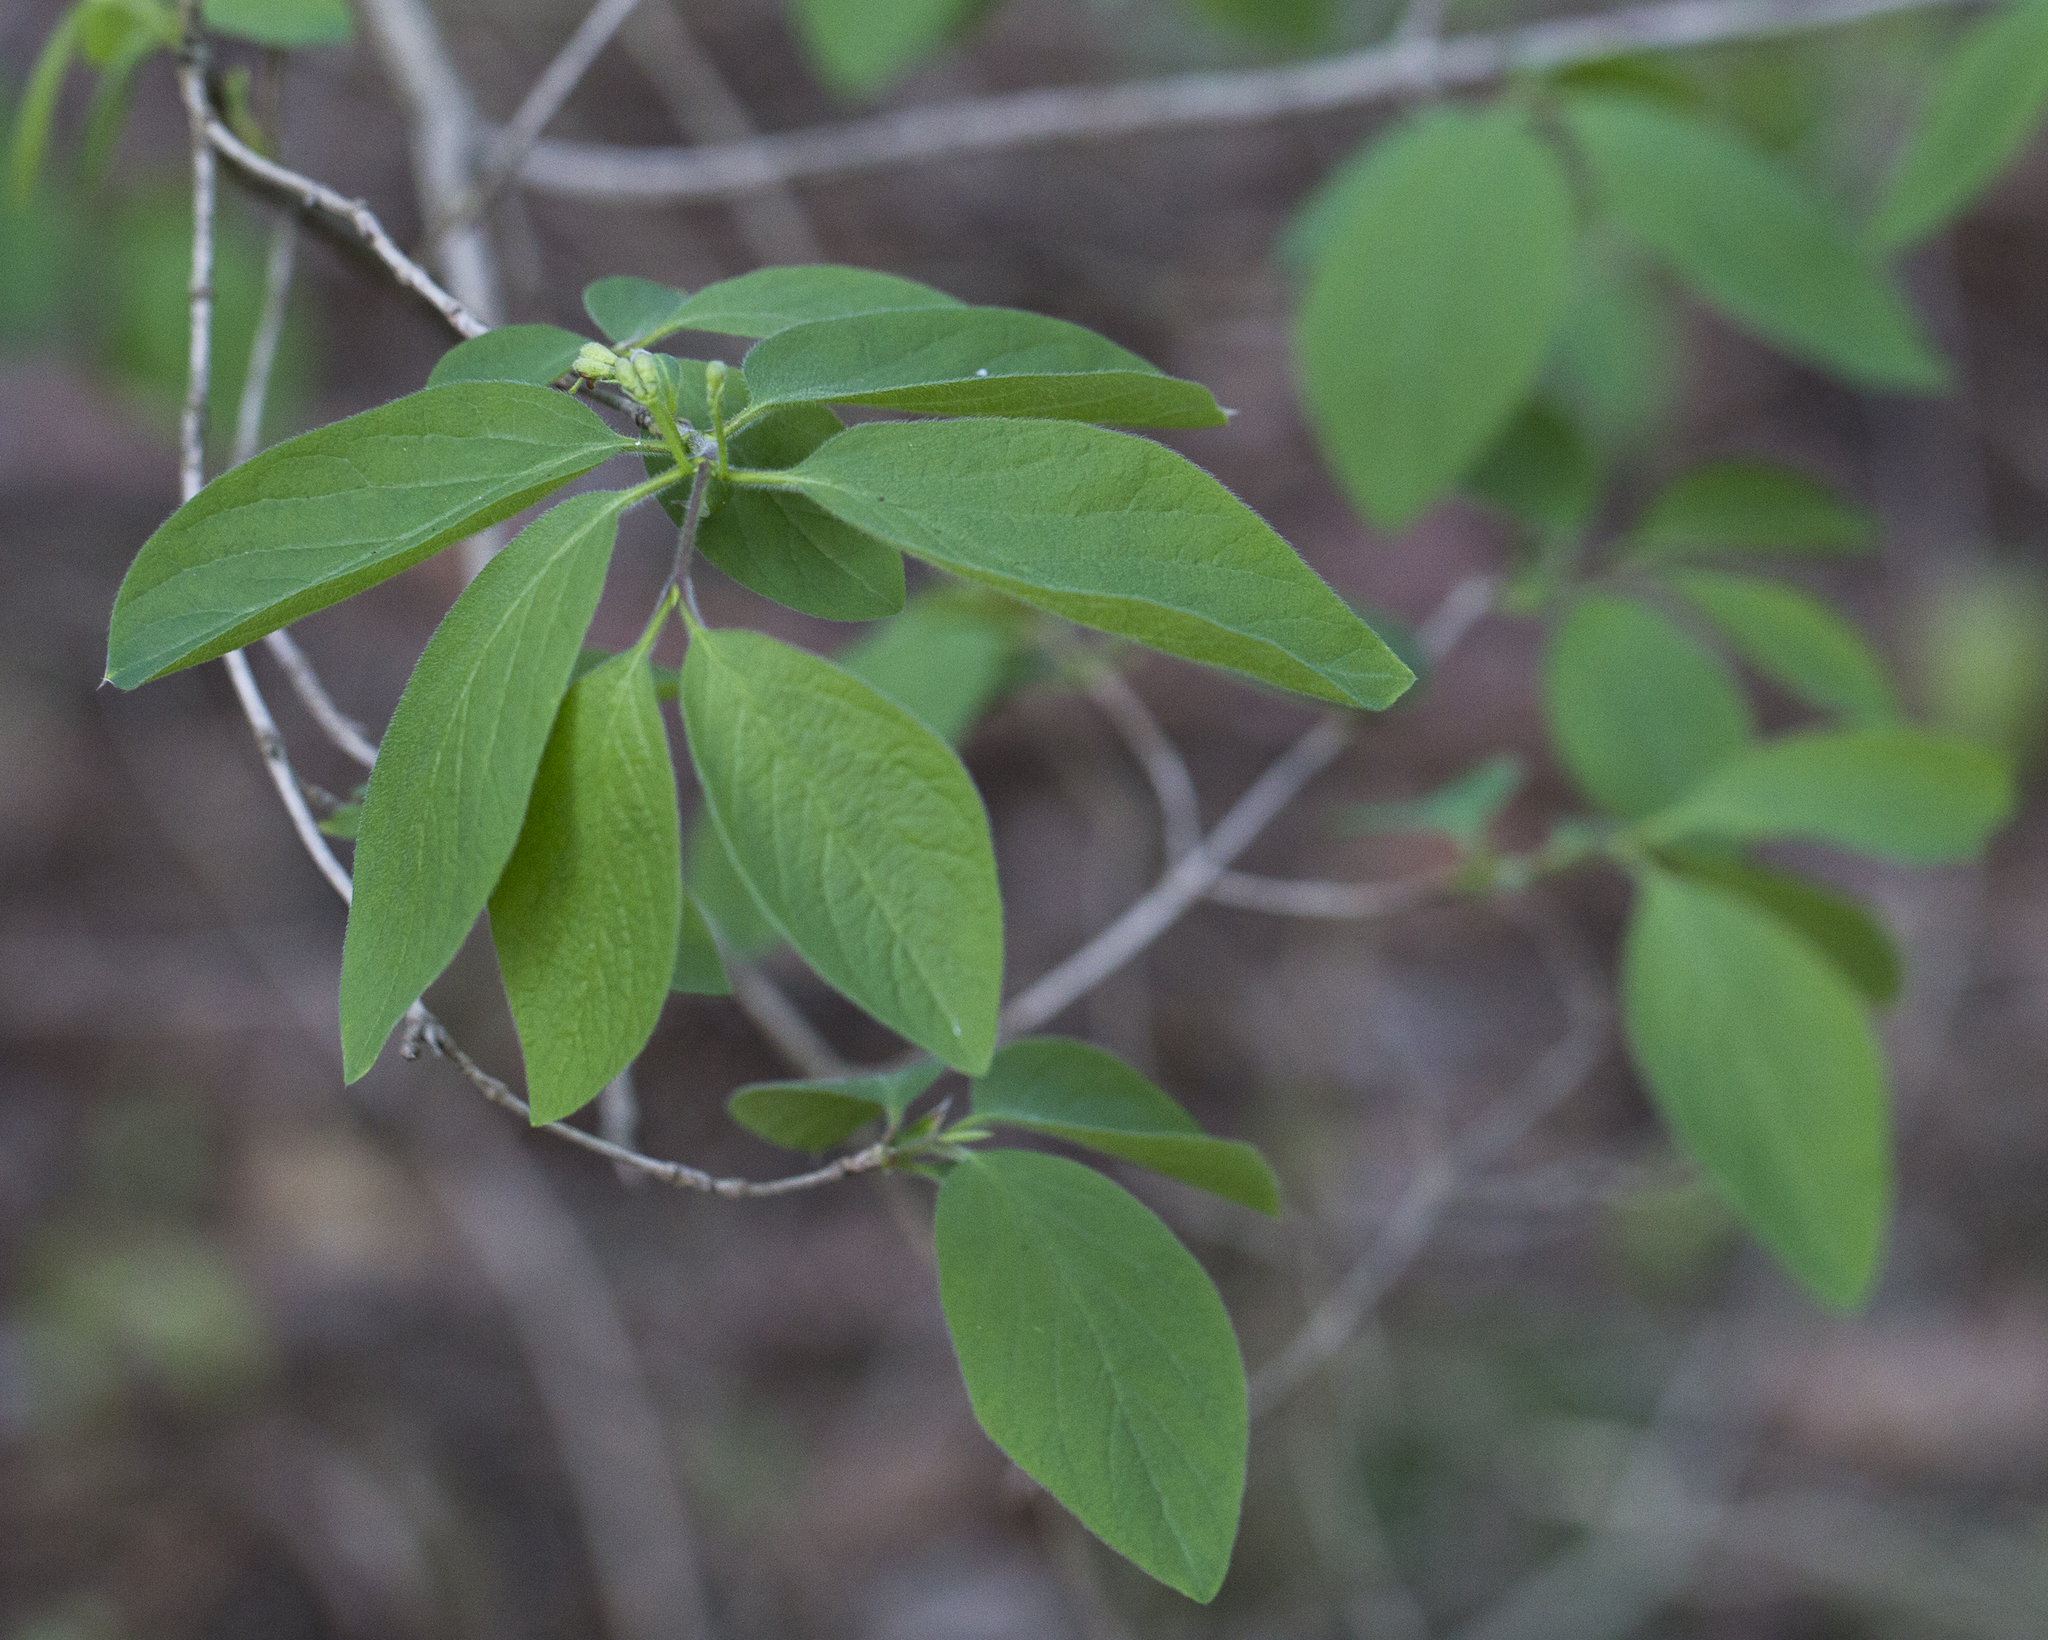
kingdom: Plantae
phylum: Tracheophyta
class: Magnoliopsida
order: Dipsacales
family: Caprifoliaceae
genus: Lonicera
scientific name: Lonicera xylosteum
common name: Fly honeysuckle
